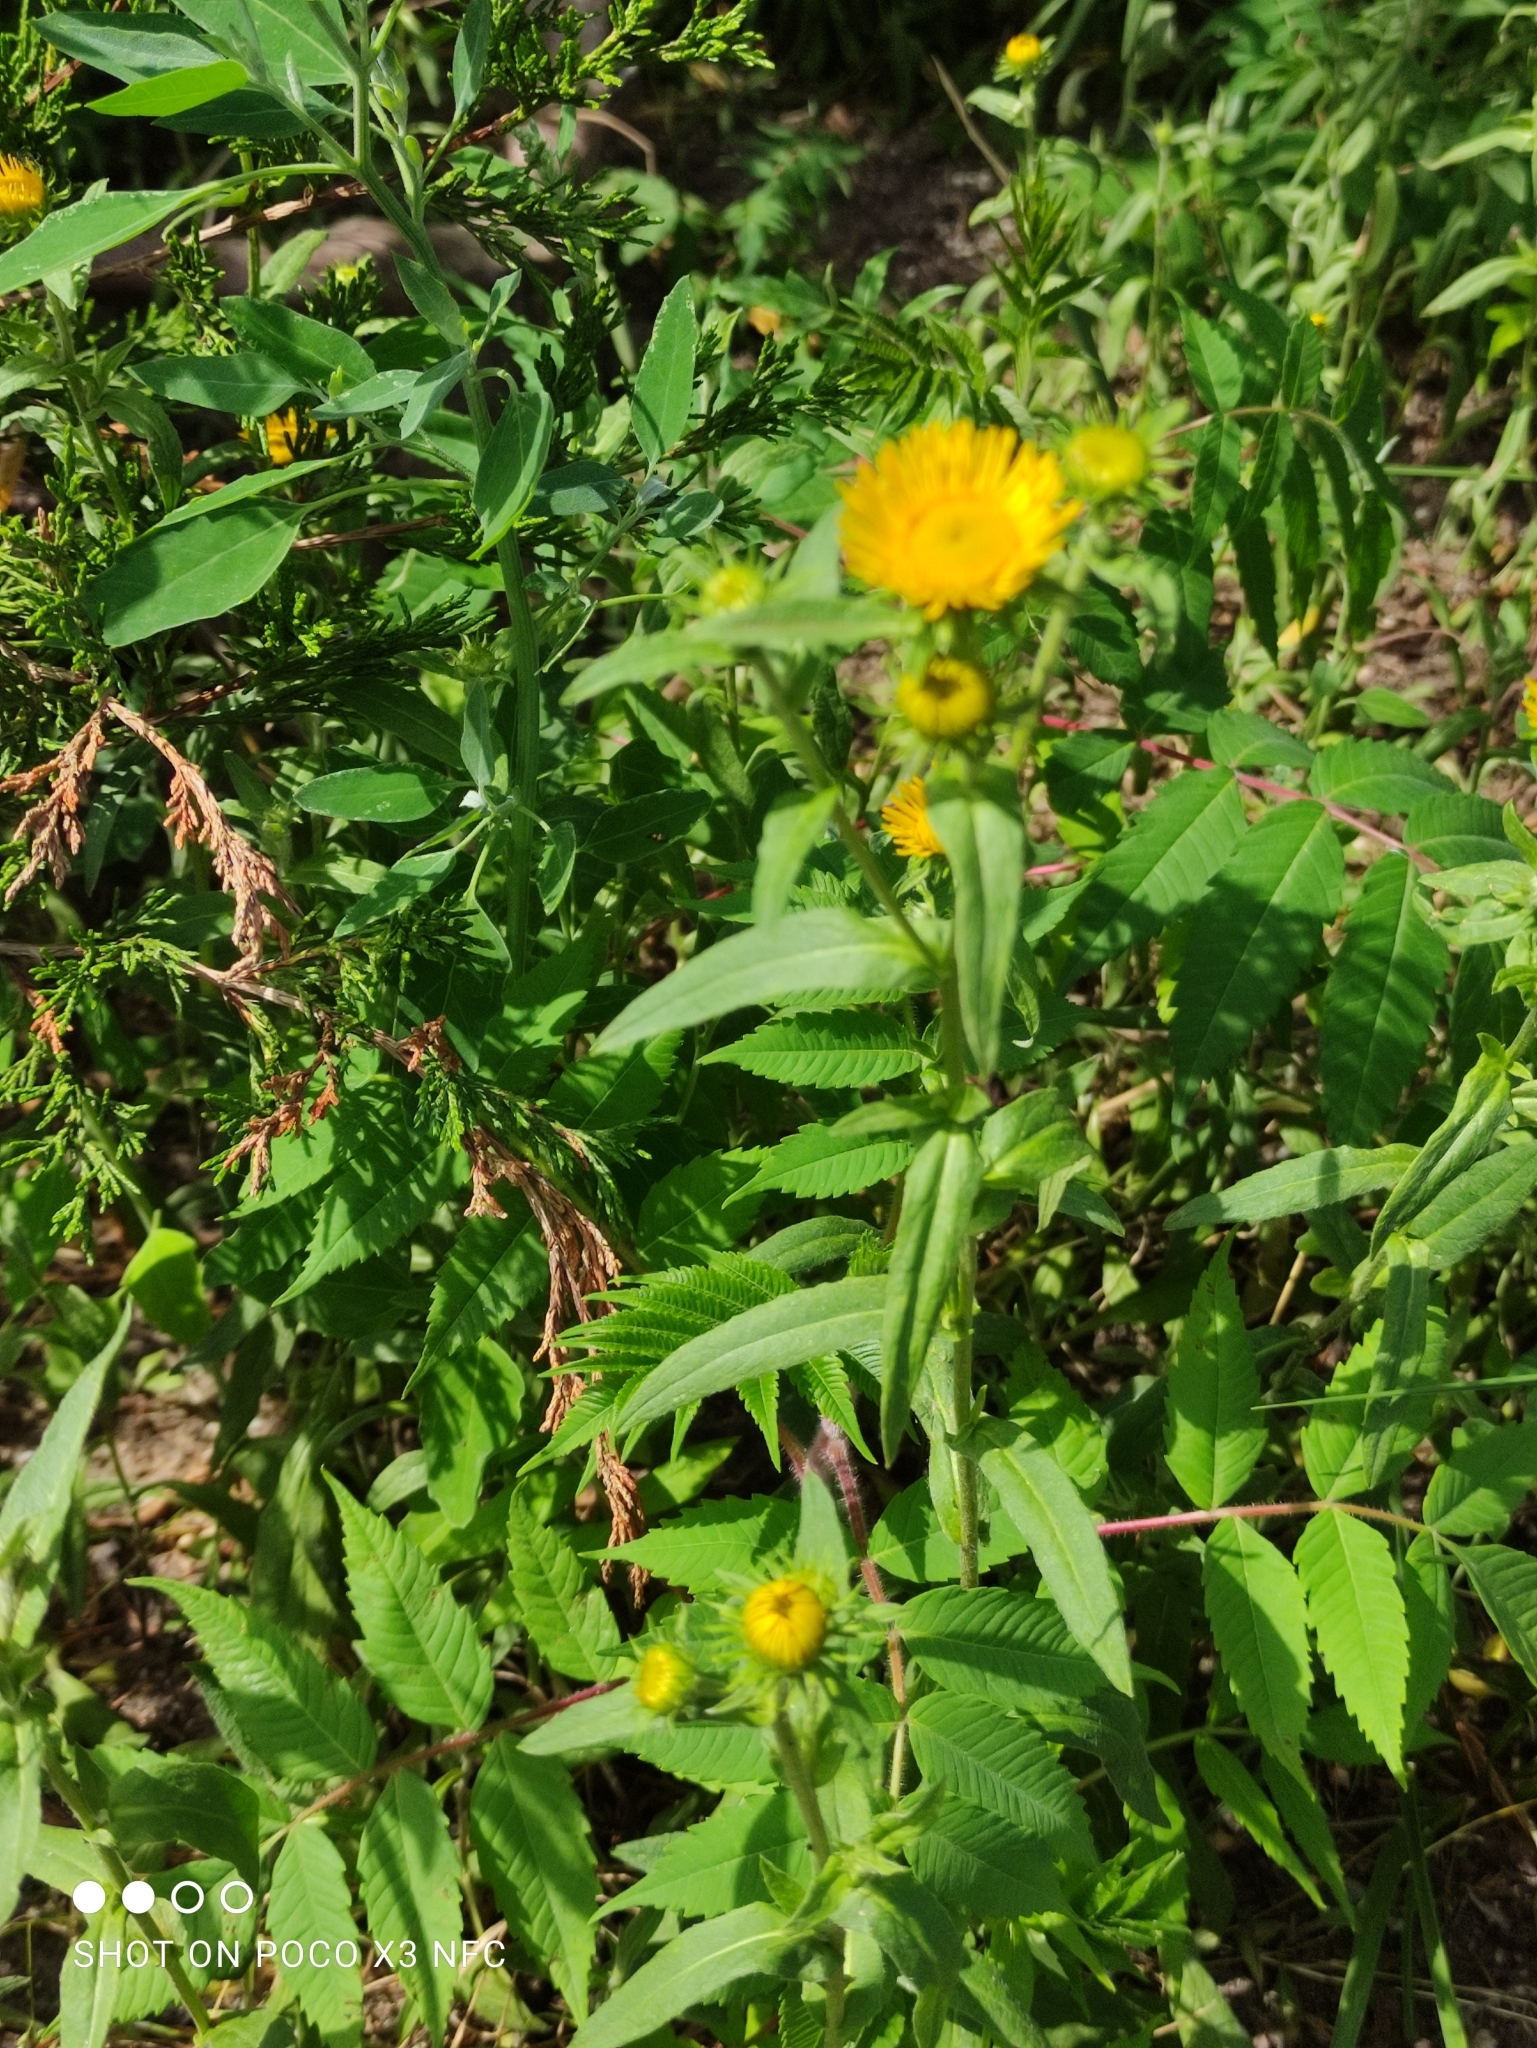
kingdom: Plantae
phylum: Tracheophyta
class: Magnoliopsida
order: Asterales
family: Asteraceae
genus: Pentanema
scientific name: Pentanema britannicum
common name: British elecampane
